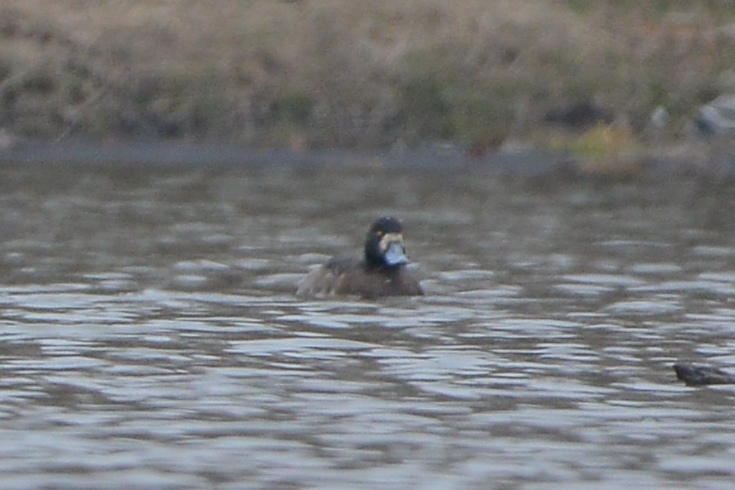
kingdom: Animalia
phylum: Chordata
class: Aves
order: Anseriformes
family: Anatidae
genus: Aythya
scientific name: Aythya marila
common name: Greater scaup
